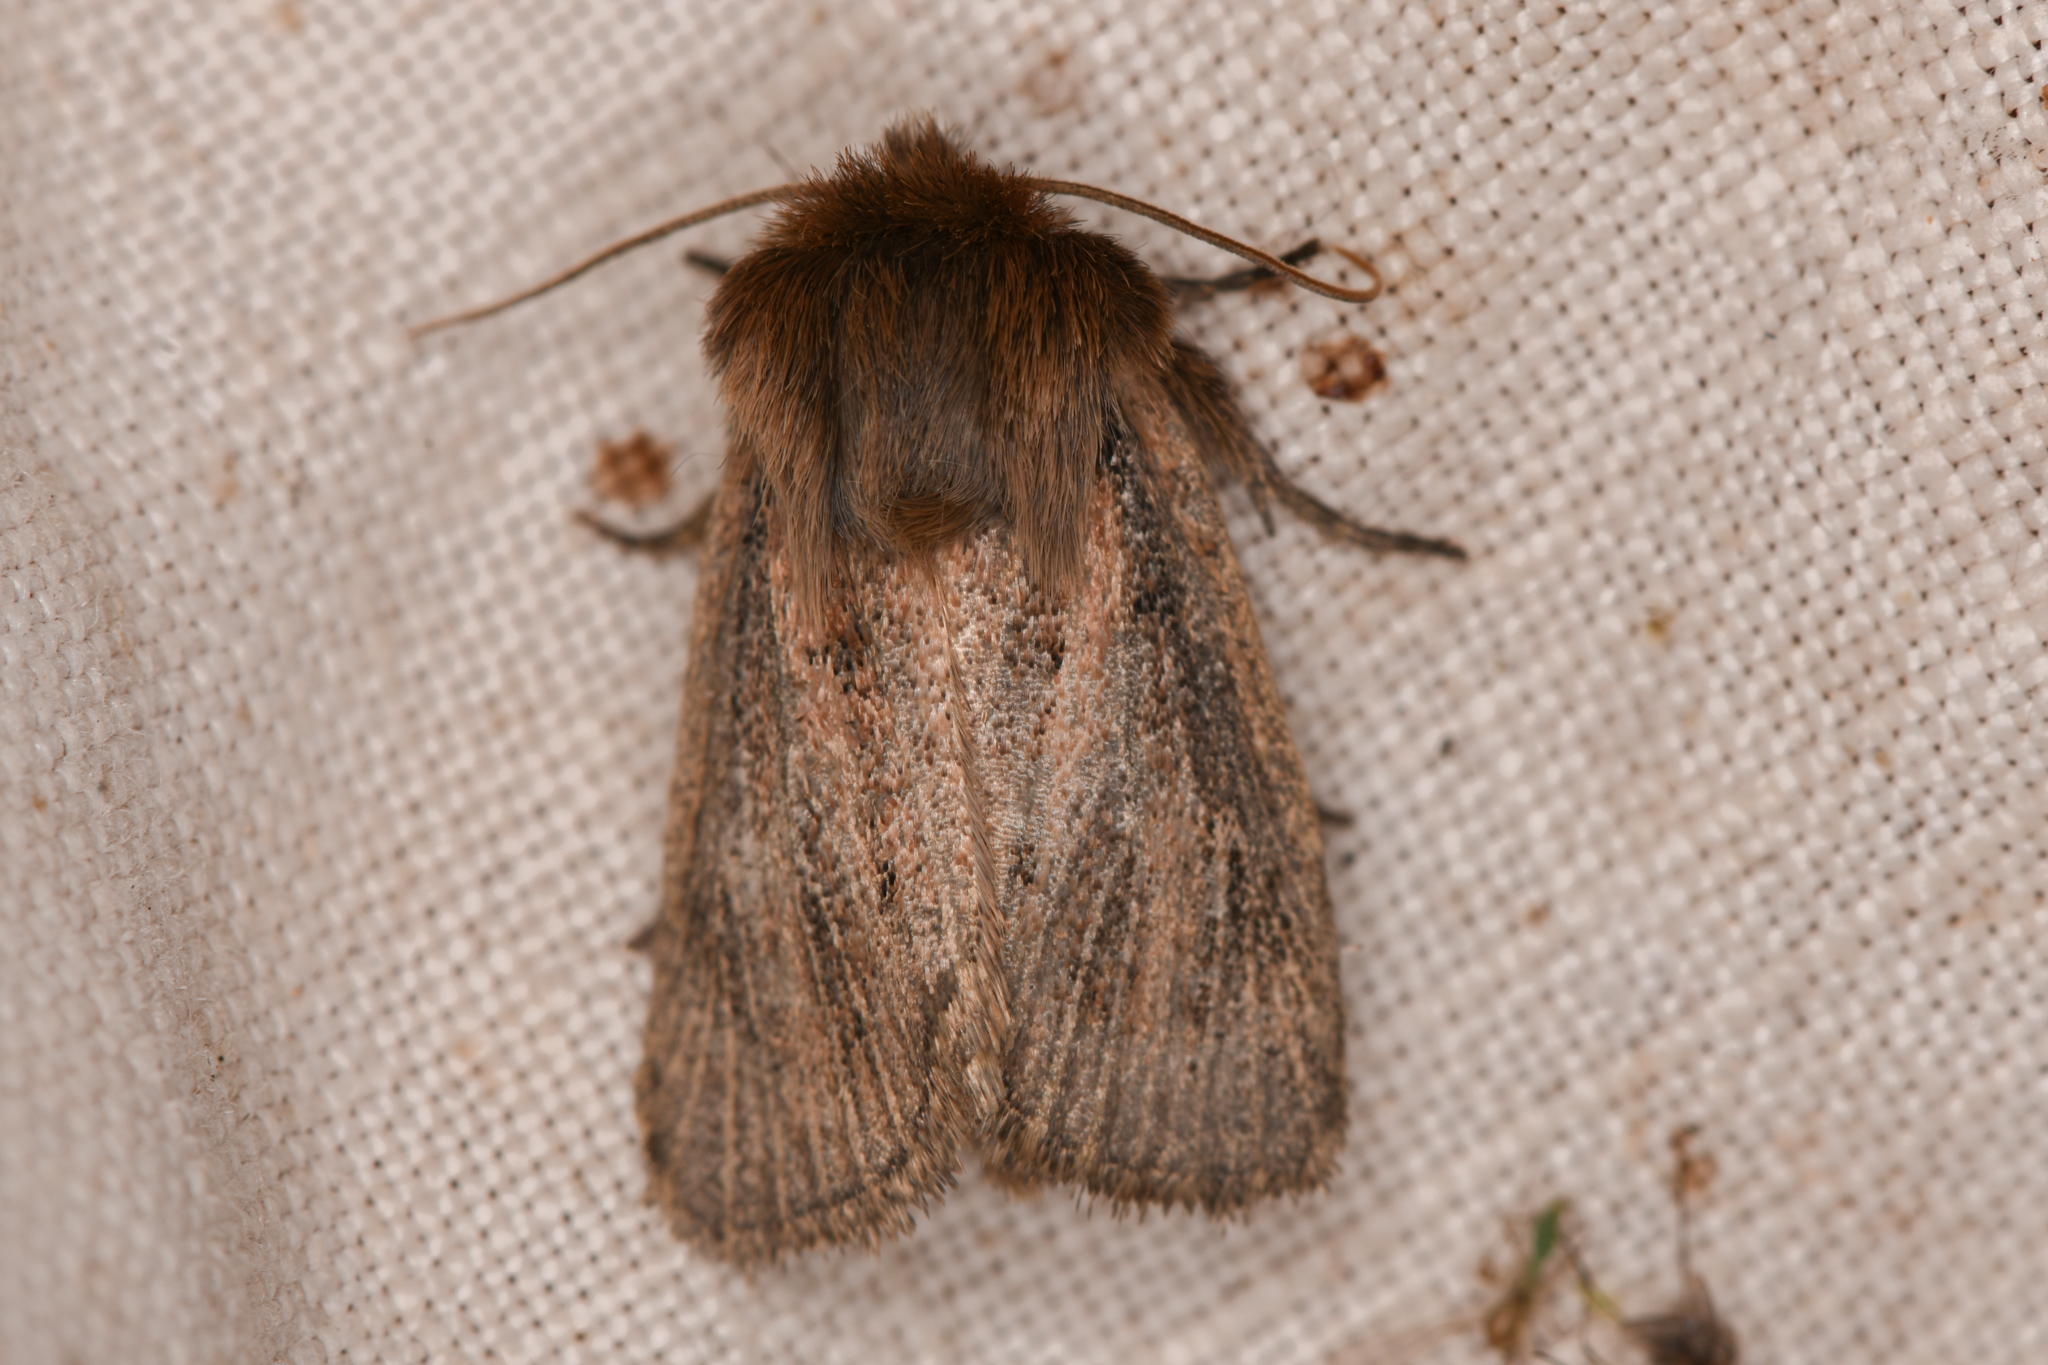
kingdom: Animalia
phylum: Arthropoda
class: Insecta
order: Lepidoptera
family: Noctuidae
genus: Hypocoena
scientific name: Hypocoena inquinata
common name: Tufted sedge moth
